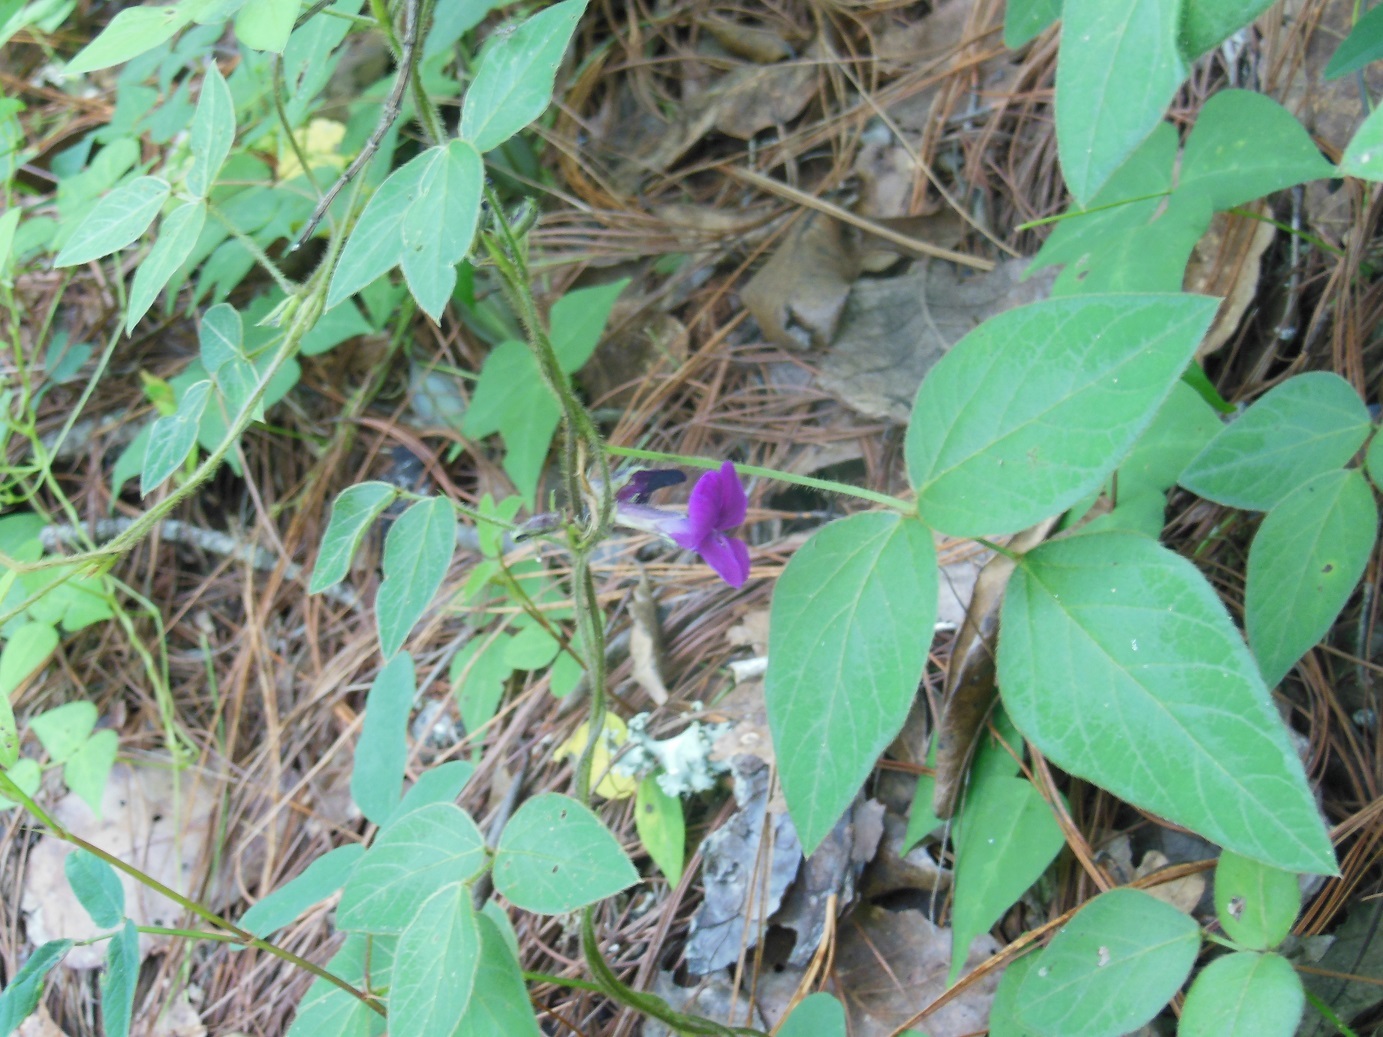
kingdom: Plantae
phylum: Tracheophyta
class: Magnoliopsida
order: Fabales
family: Fabaceae
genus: Cologania
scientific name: Cologania broussonetii
